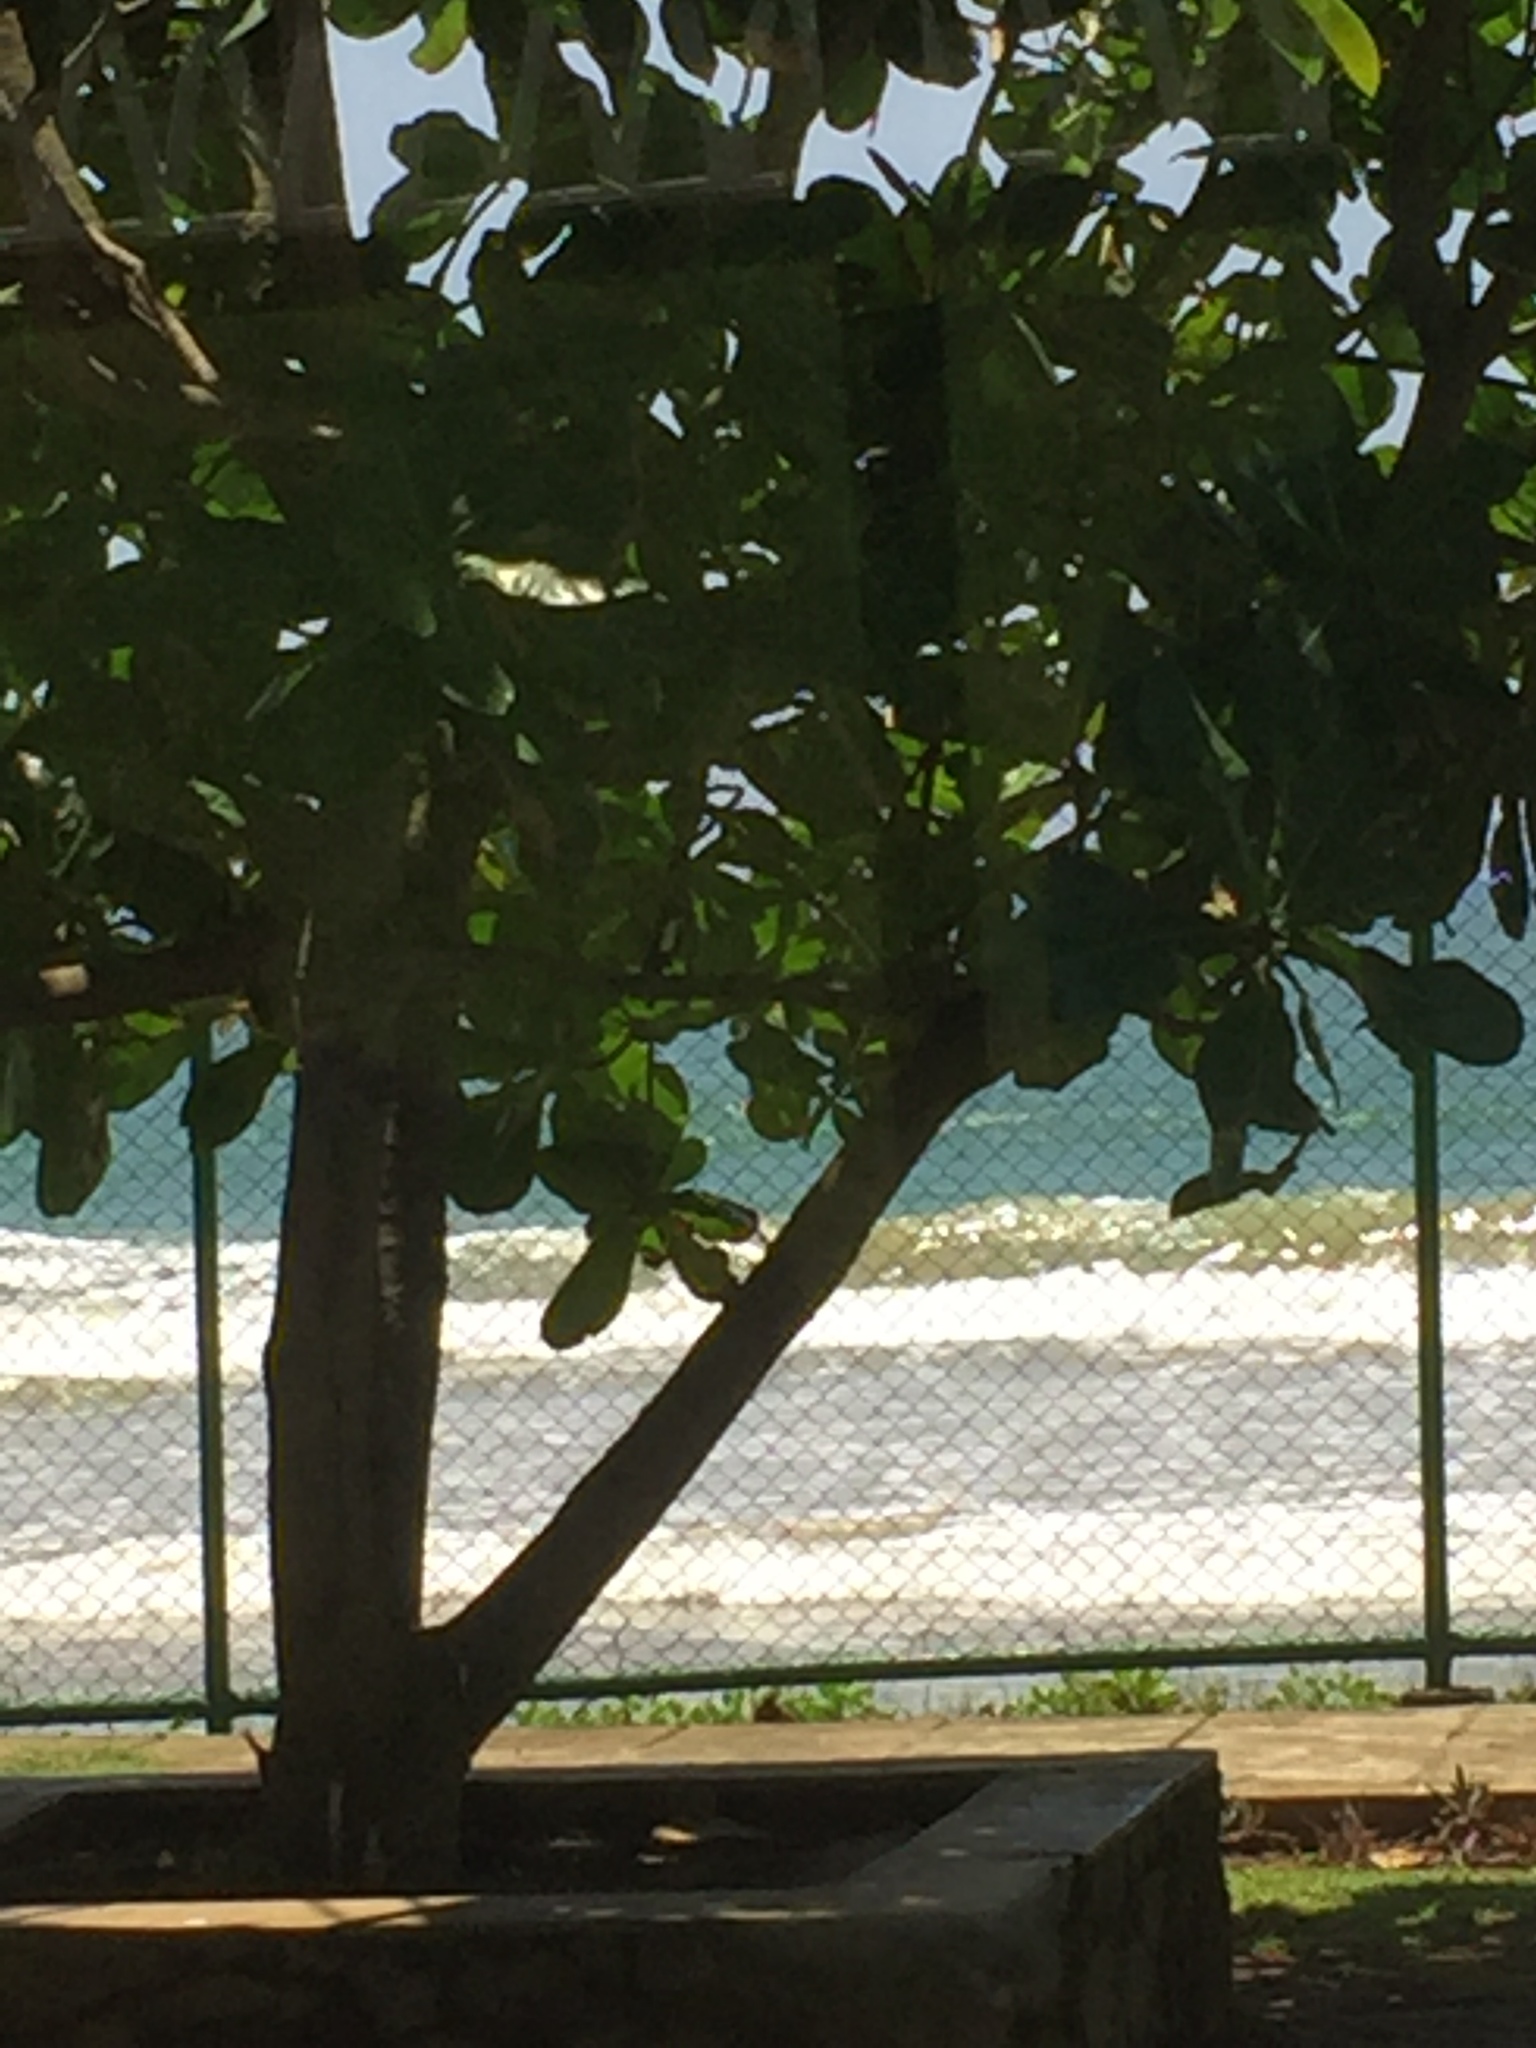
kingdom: Animalia
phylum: Chordata
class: Aves
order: Coraciiformes
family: Alcedinidae
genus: Halcyon
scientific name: Halcyon smyrnensis
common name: White-throated kingfisher
